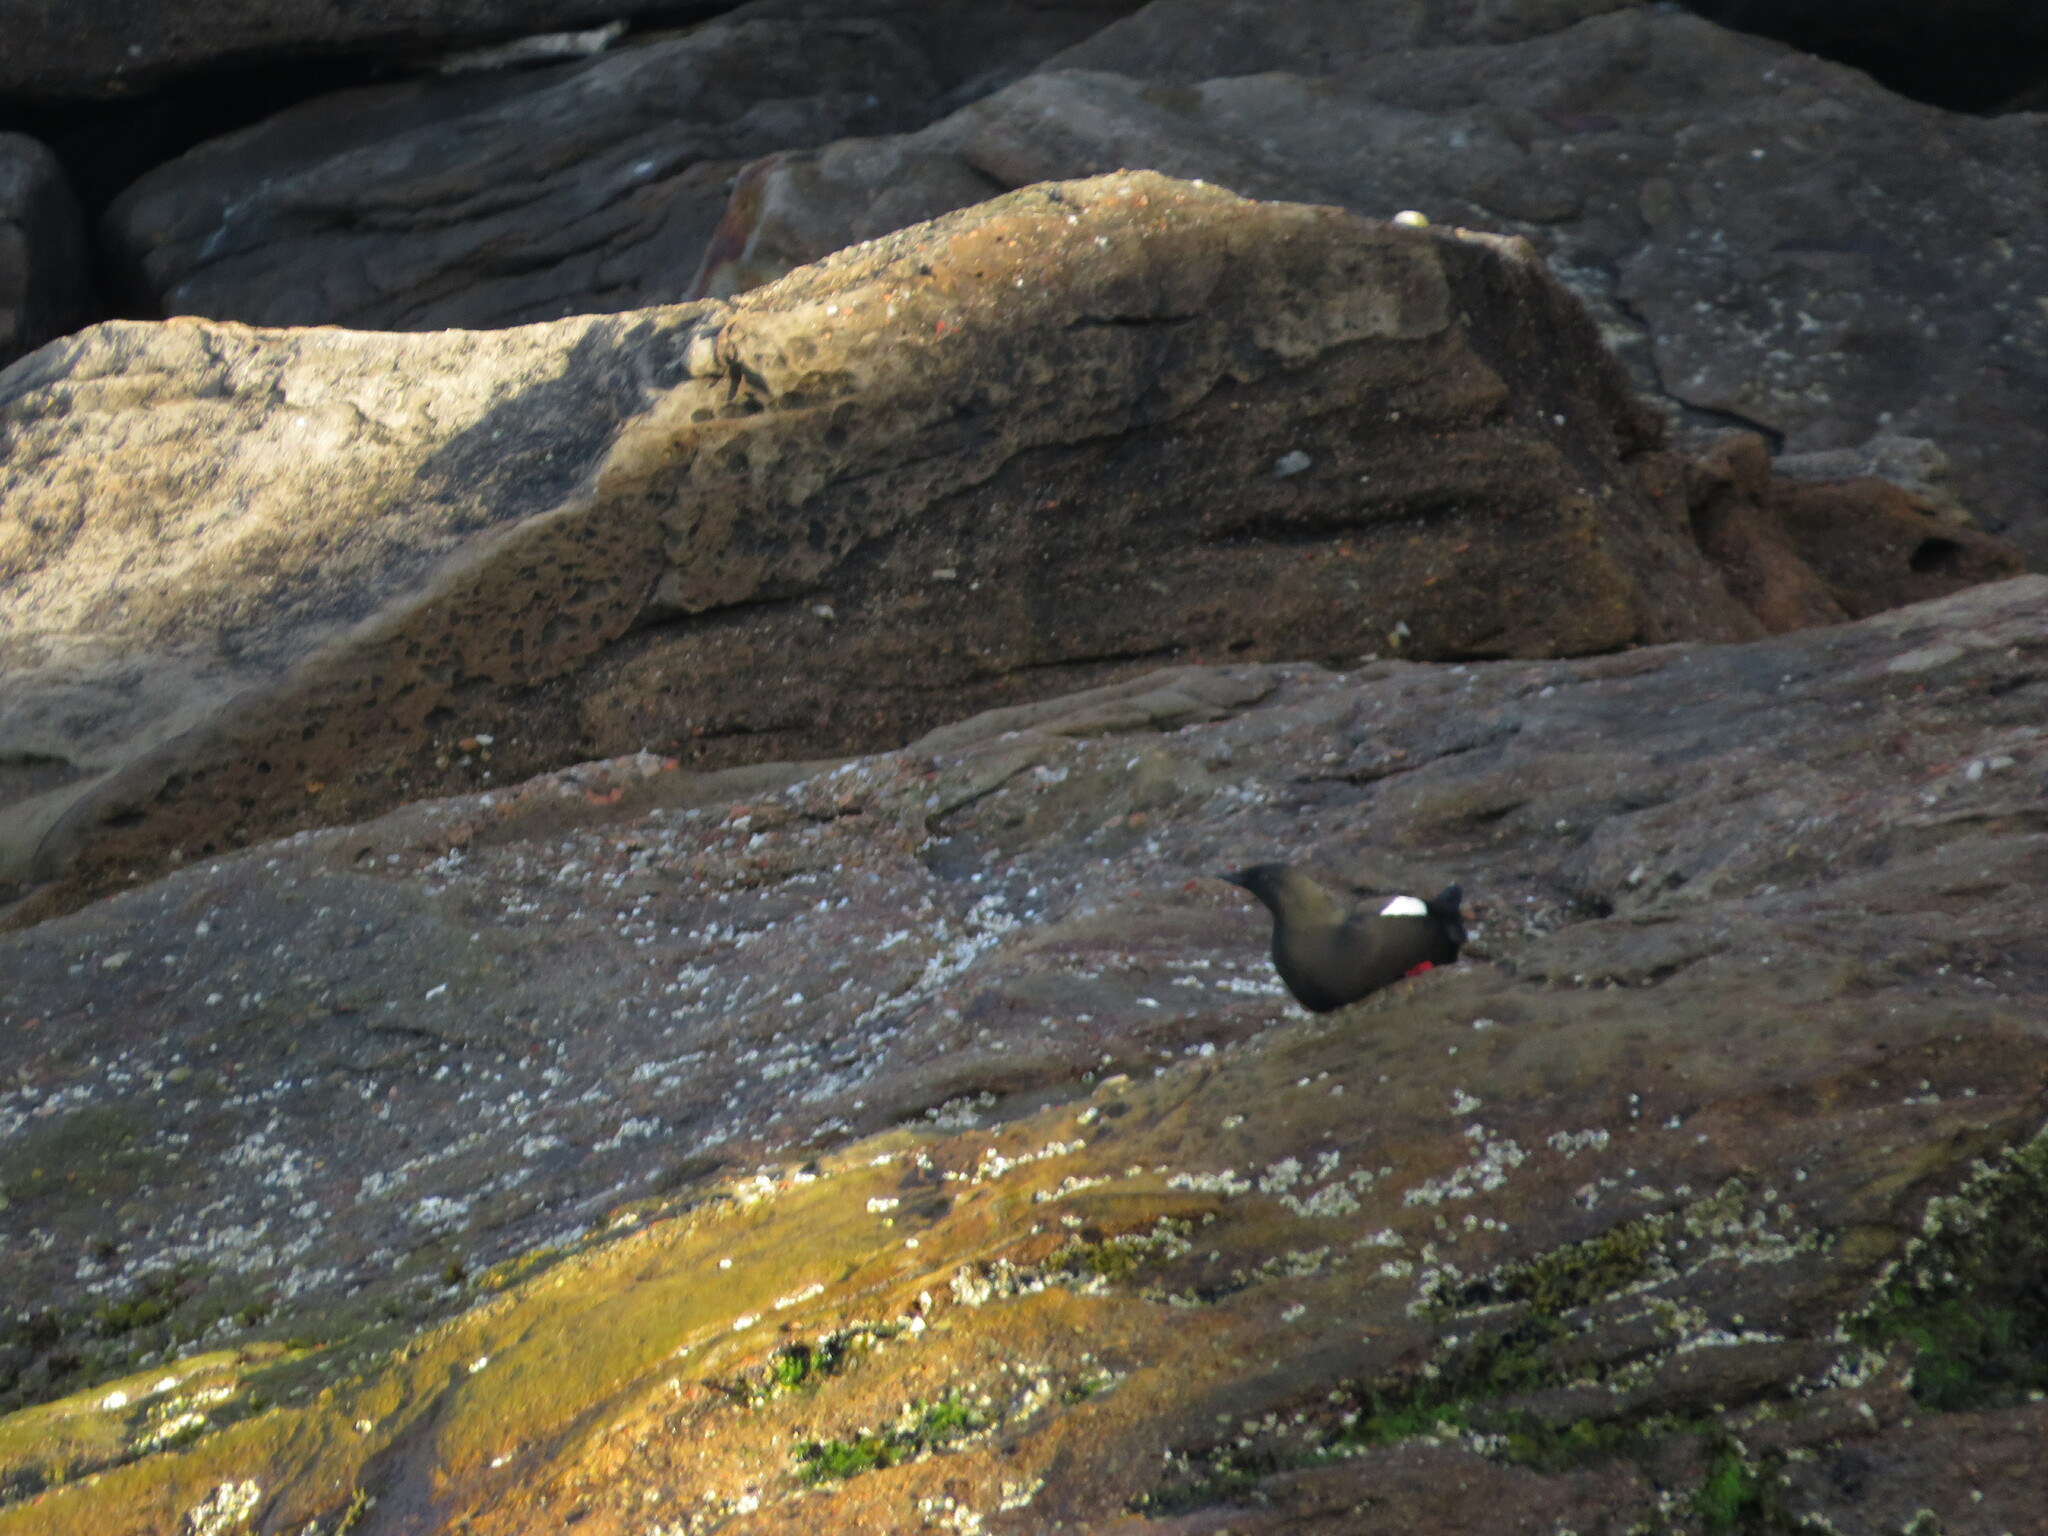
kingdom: Animalia
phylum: Chordata
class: Aves
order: Charadriiformes
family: Alcidae
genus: Cepphus
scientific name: Cepphus grylle
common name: Black guillemot
